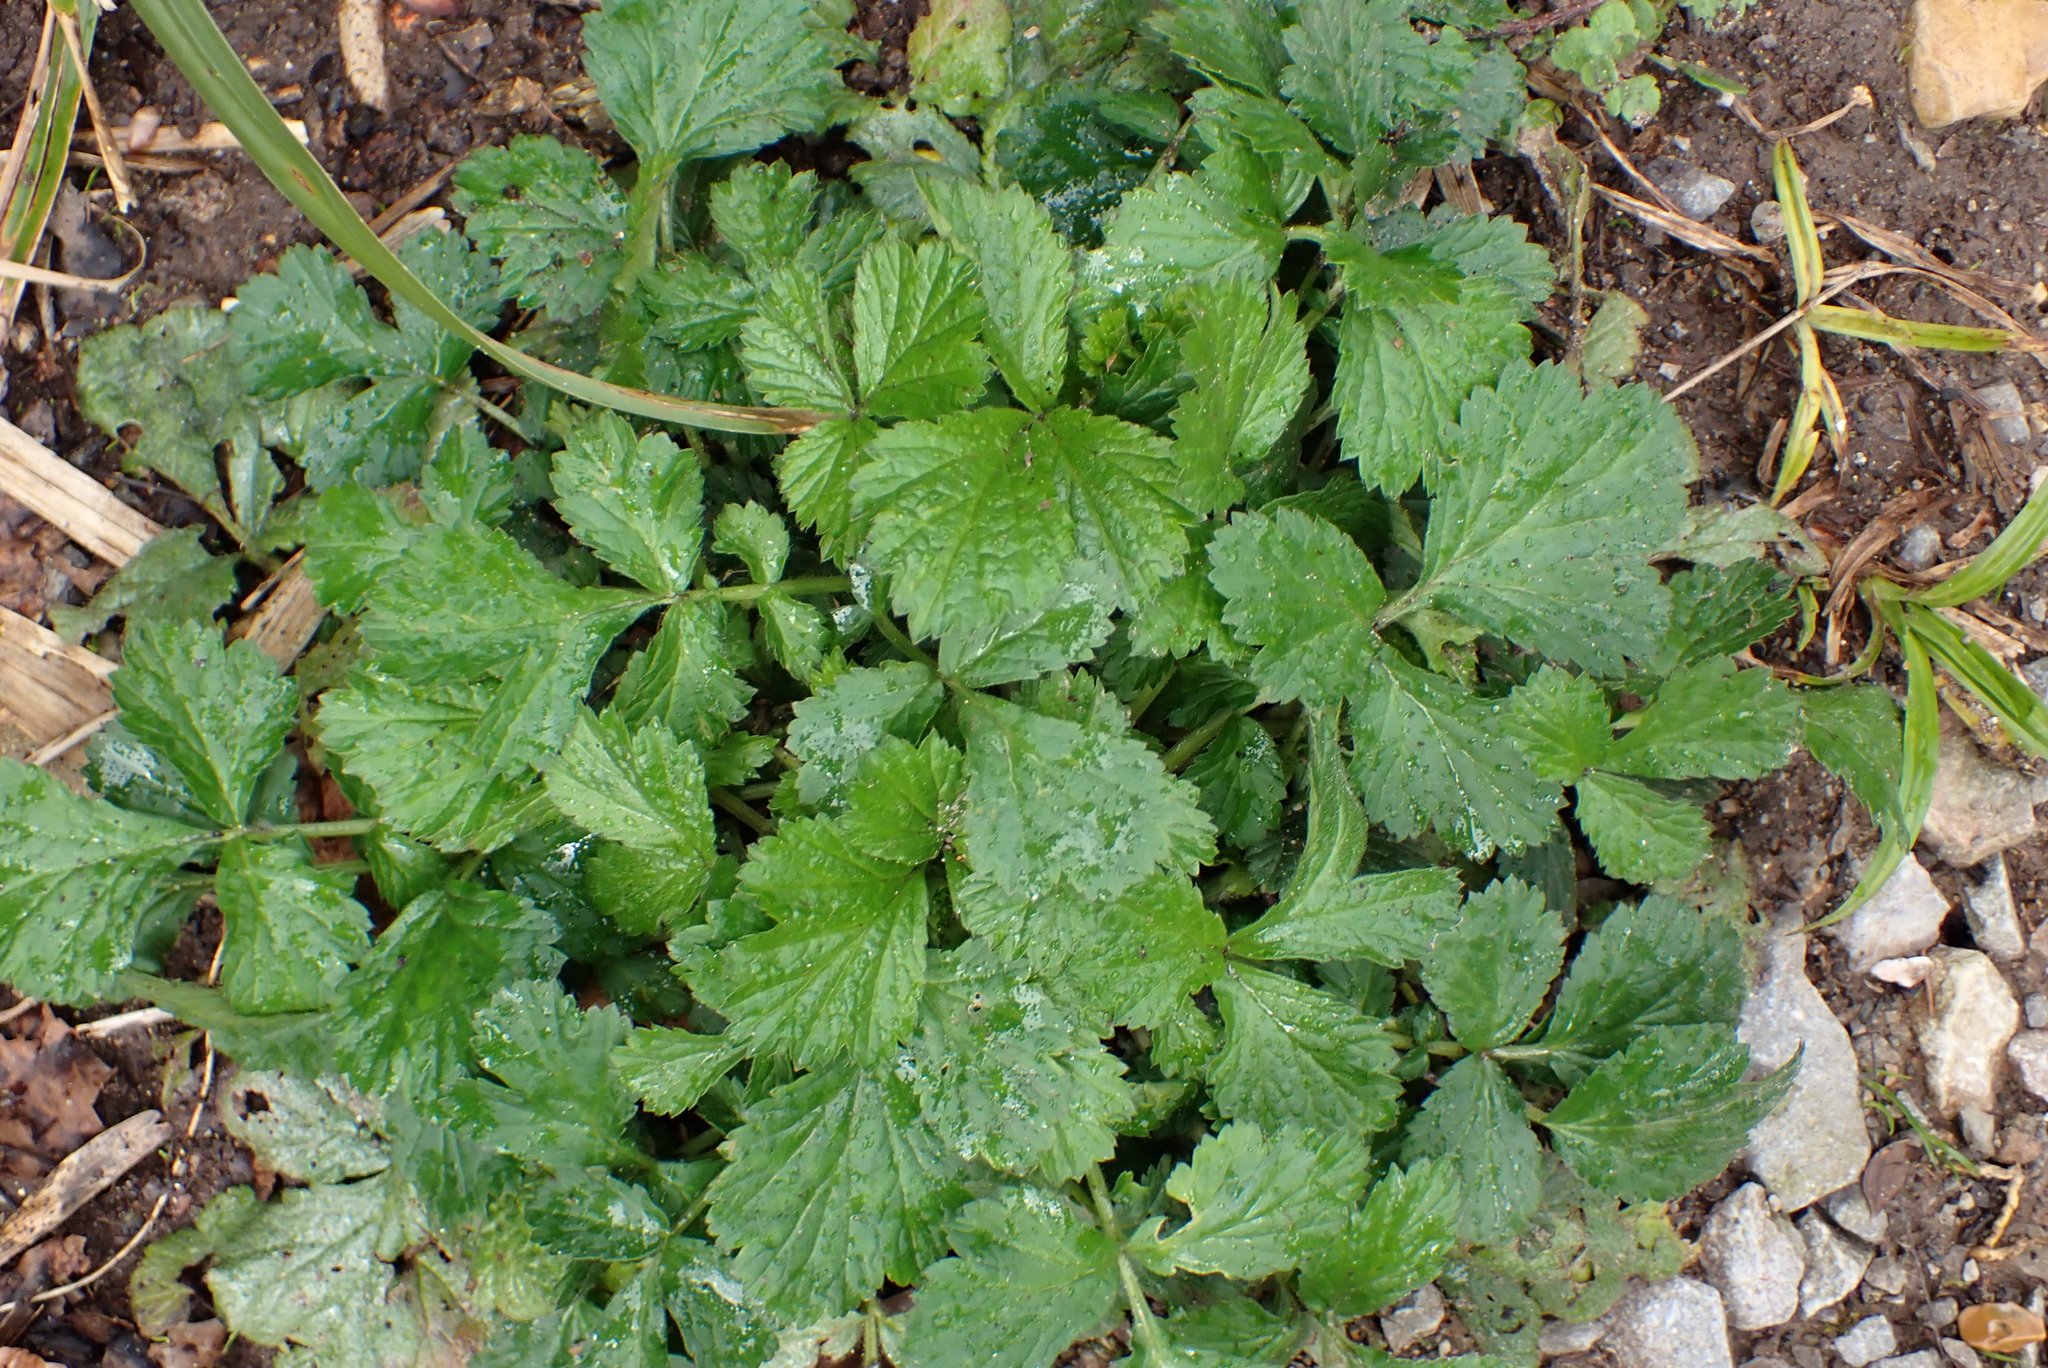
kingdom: Plantae
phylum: Tracheophyta
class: Magnoliopsida
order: Rosales
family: Rosaceae
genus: Geum
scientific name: Geum urbanum
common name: Wood avens
